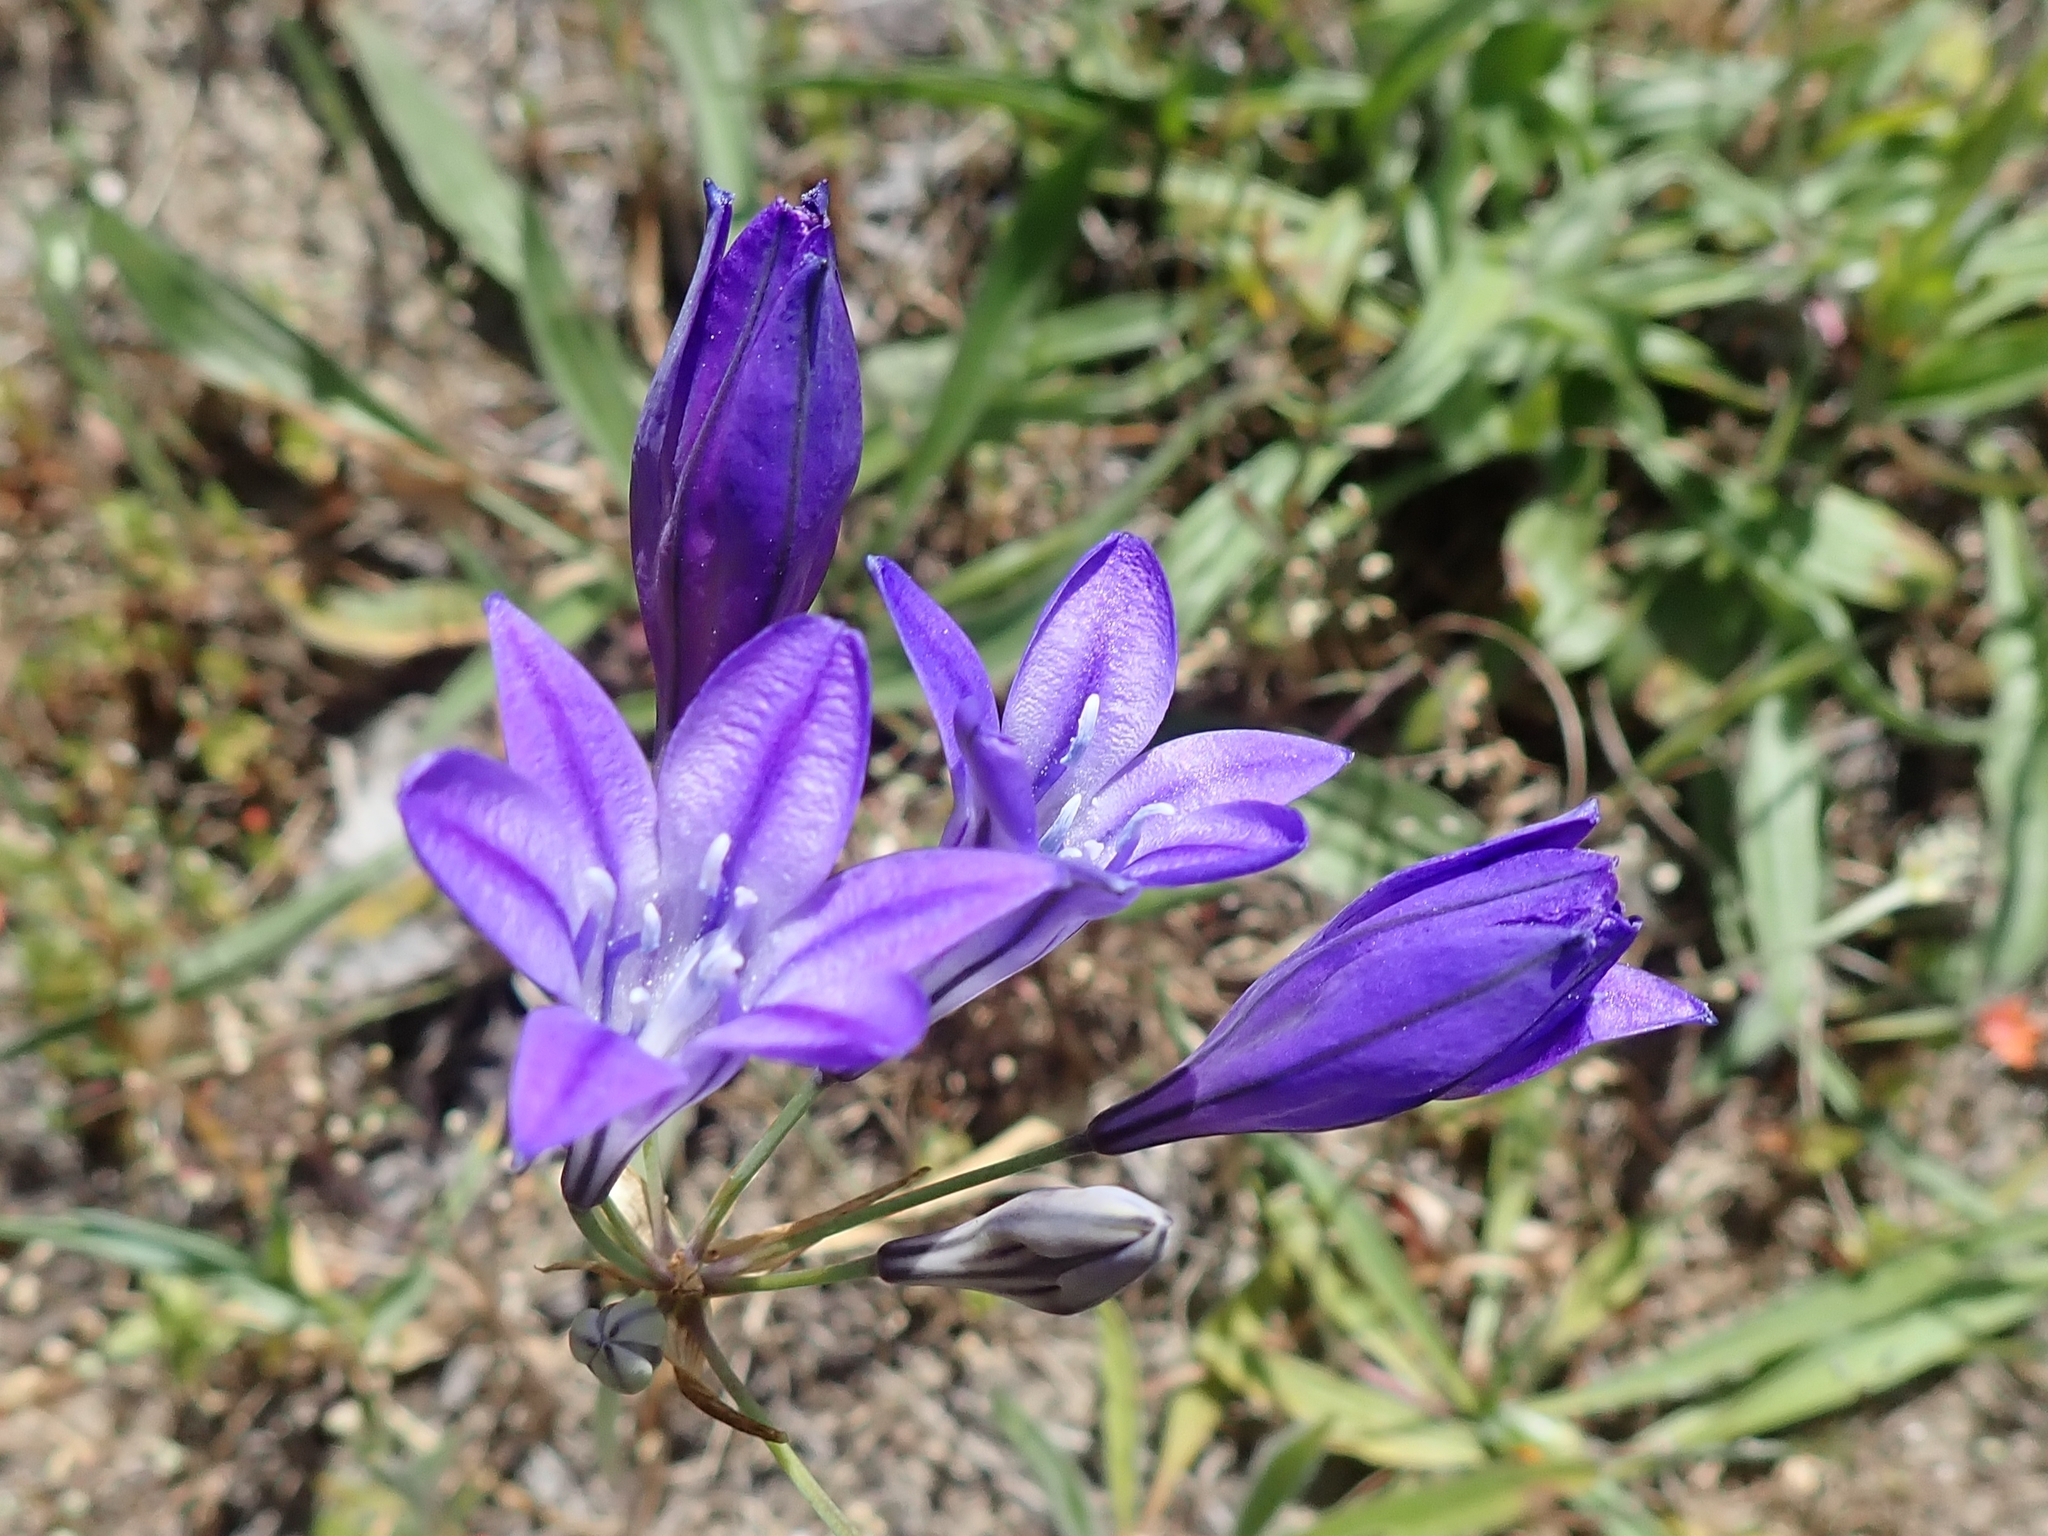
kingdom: Plantae
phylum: Tracheophyta
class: Liliopsida
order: Asparagales
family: Asparagaceae
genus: Triteleia
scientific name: Triteleia laxa
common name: Triplet-lily
